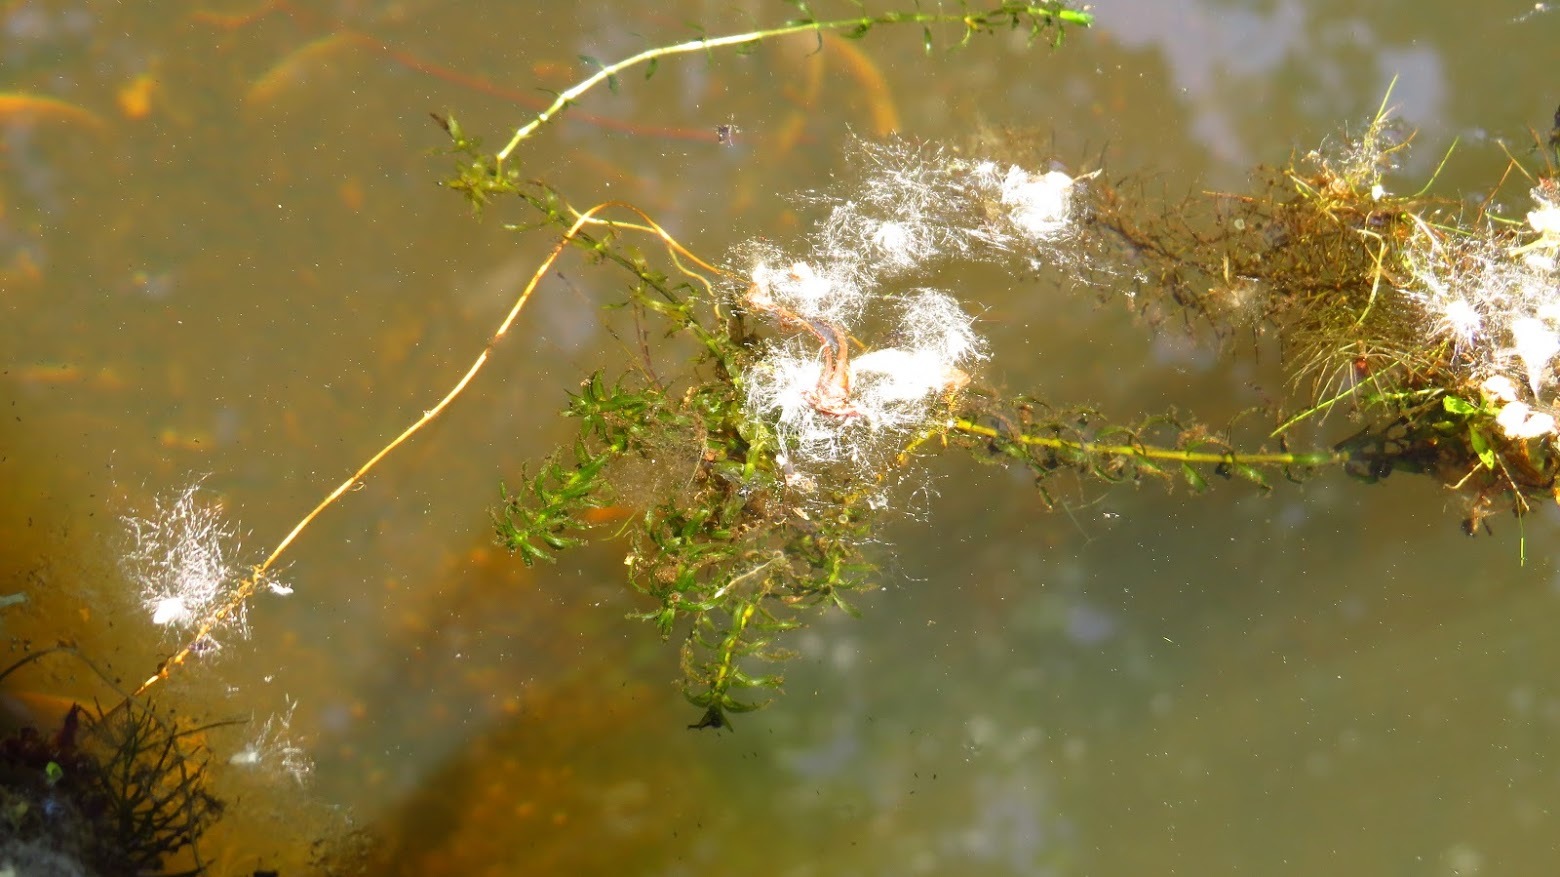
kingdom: Plantae
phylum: Tracheophyta
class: Liliopsida
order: Alismatales
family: Hydrocharitaceae
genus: Hydrilla
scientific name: Hydrilla verticillata
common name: Florida-elodea
